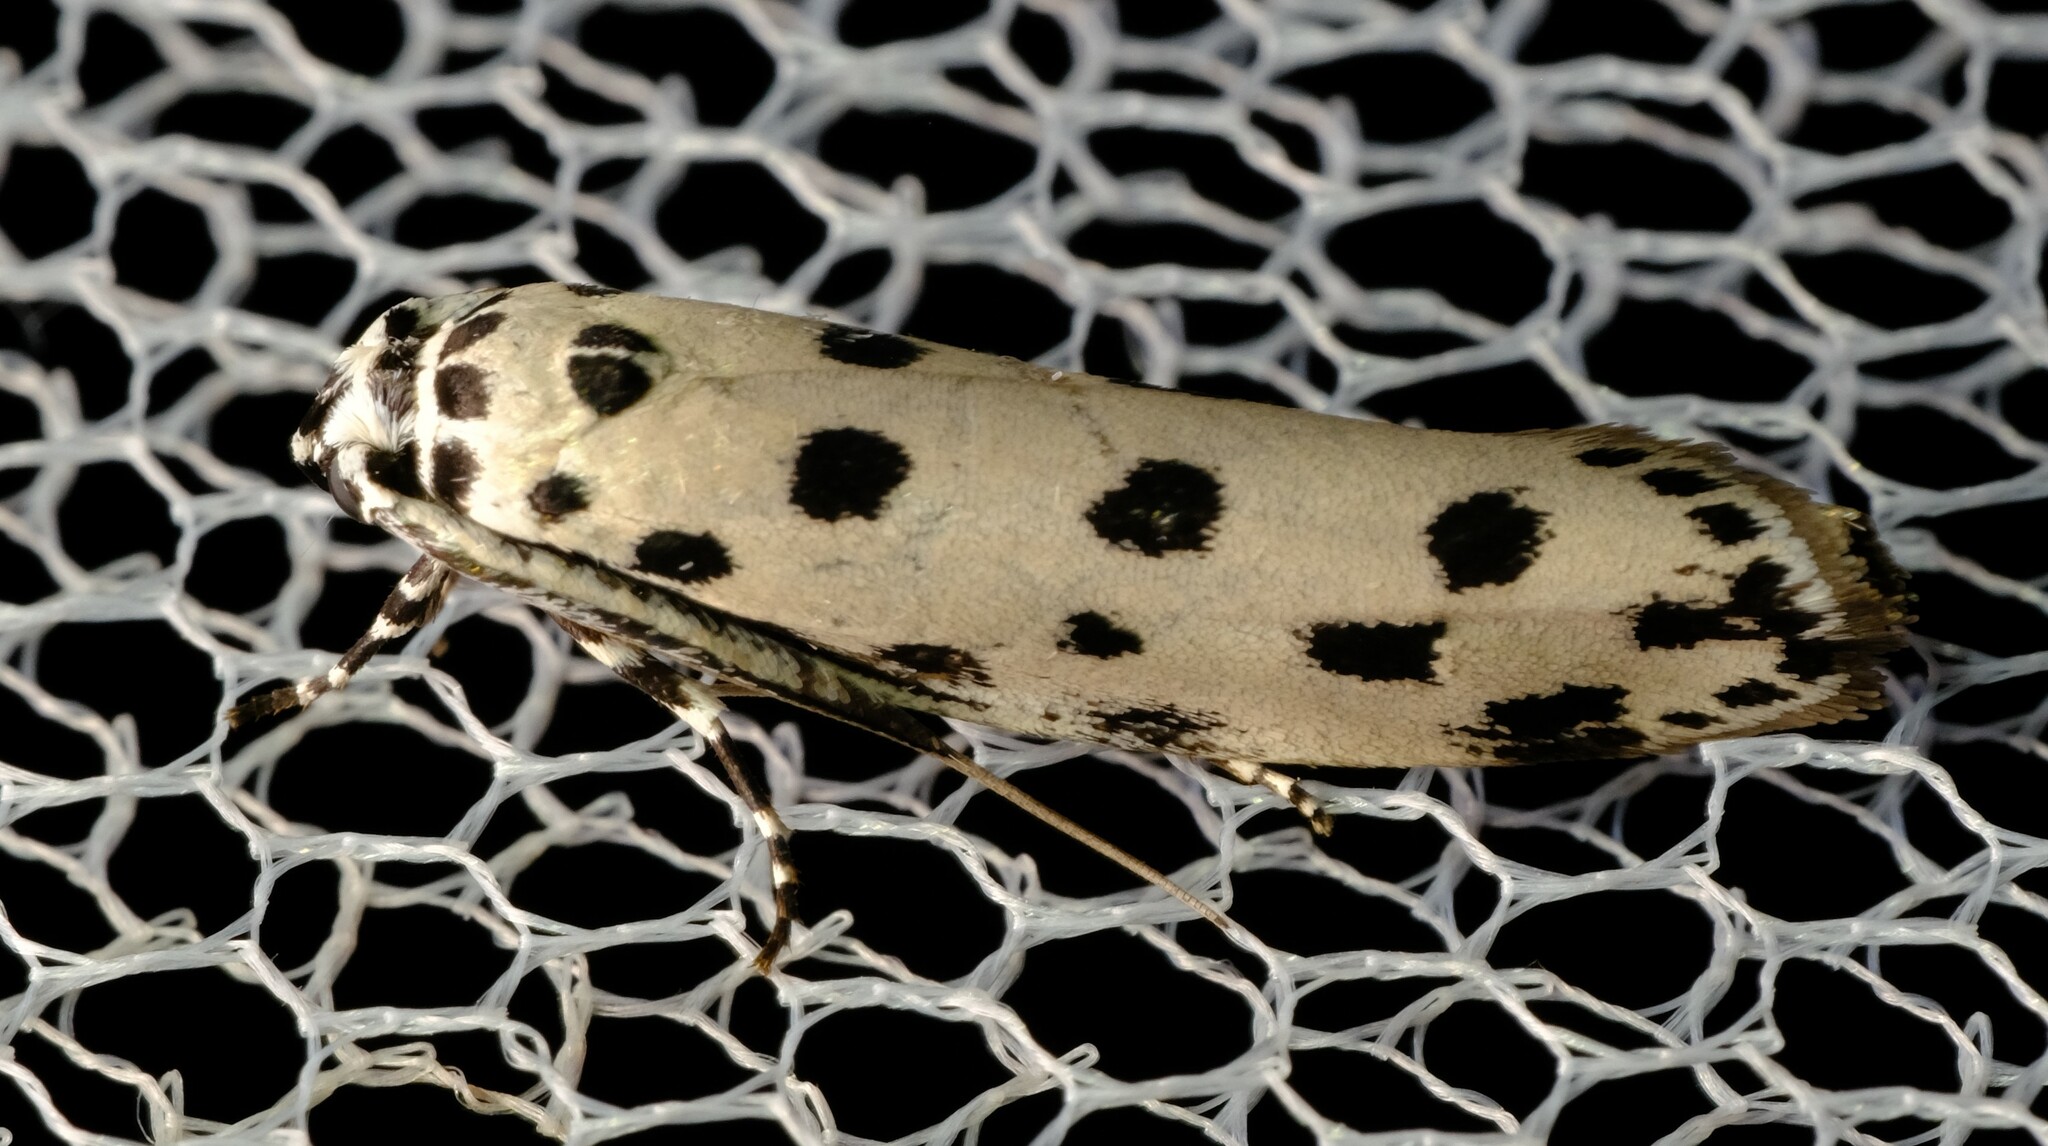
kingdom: Animalia
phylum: Arthropoda
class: Insecta
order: Lepidoptera
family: Ethmiidae
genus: Ethmia
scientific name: Ethmia sphaerosticha
